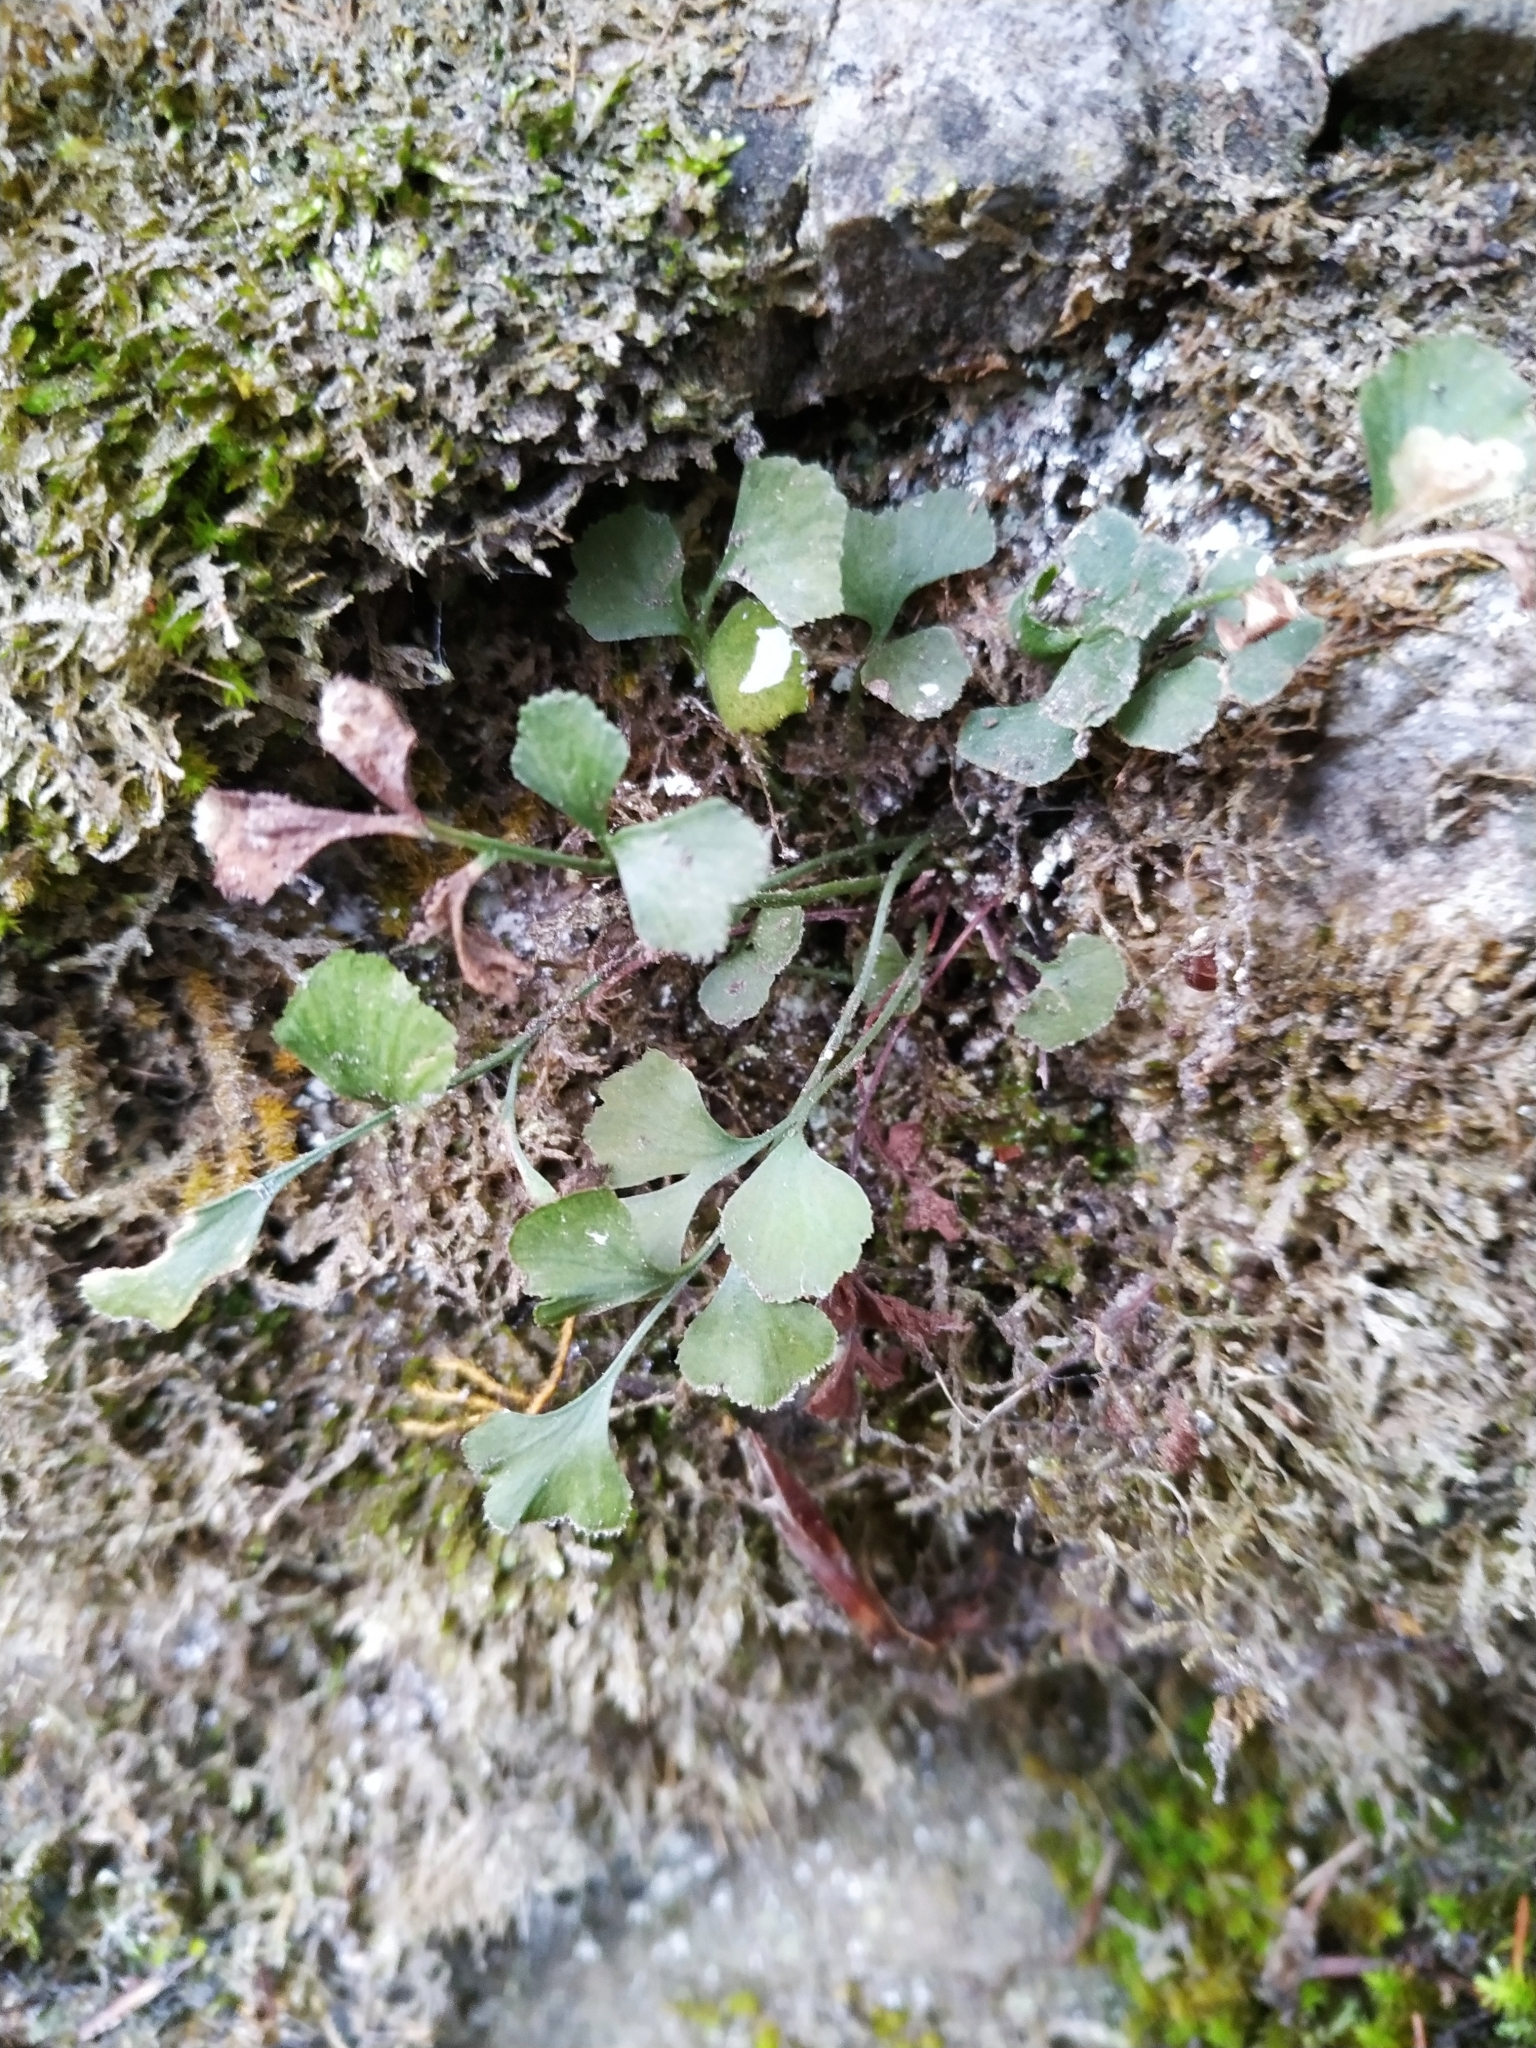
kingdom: Plantae
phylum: Tracheophyta
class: Polypodiopsida
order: Polypodiales
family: Aspleniaceae
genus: Asplenium
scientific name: Asplenium ruta-muraria
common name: Wall-rue
